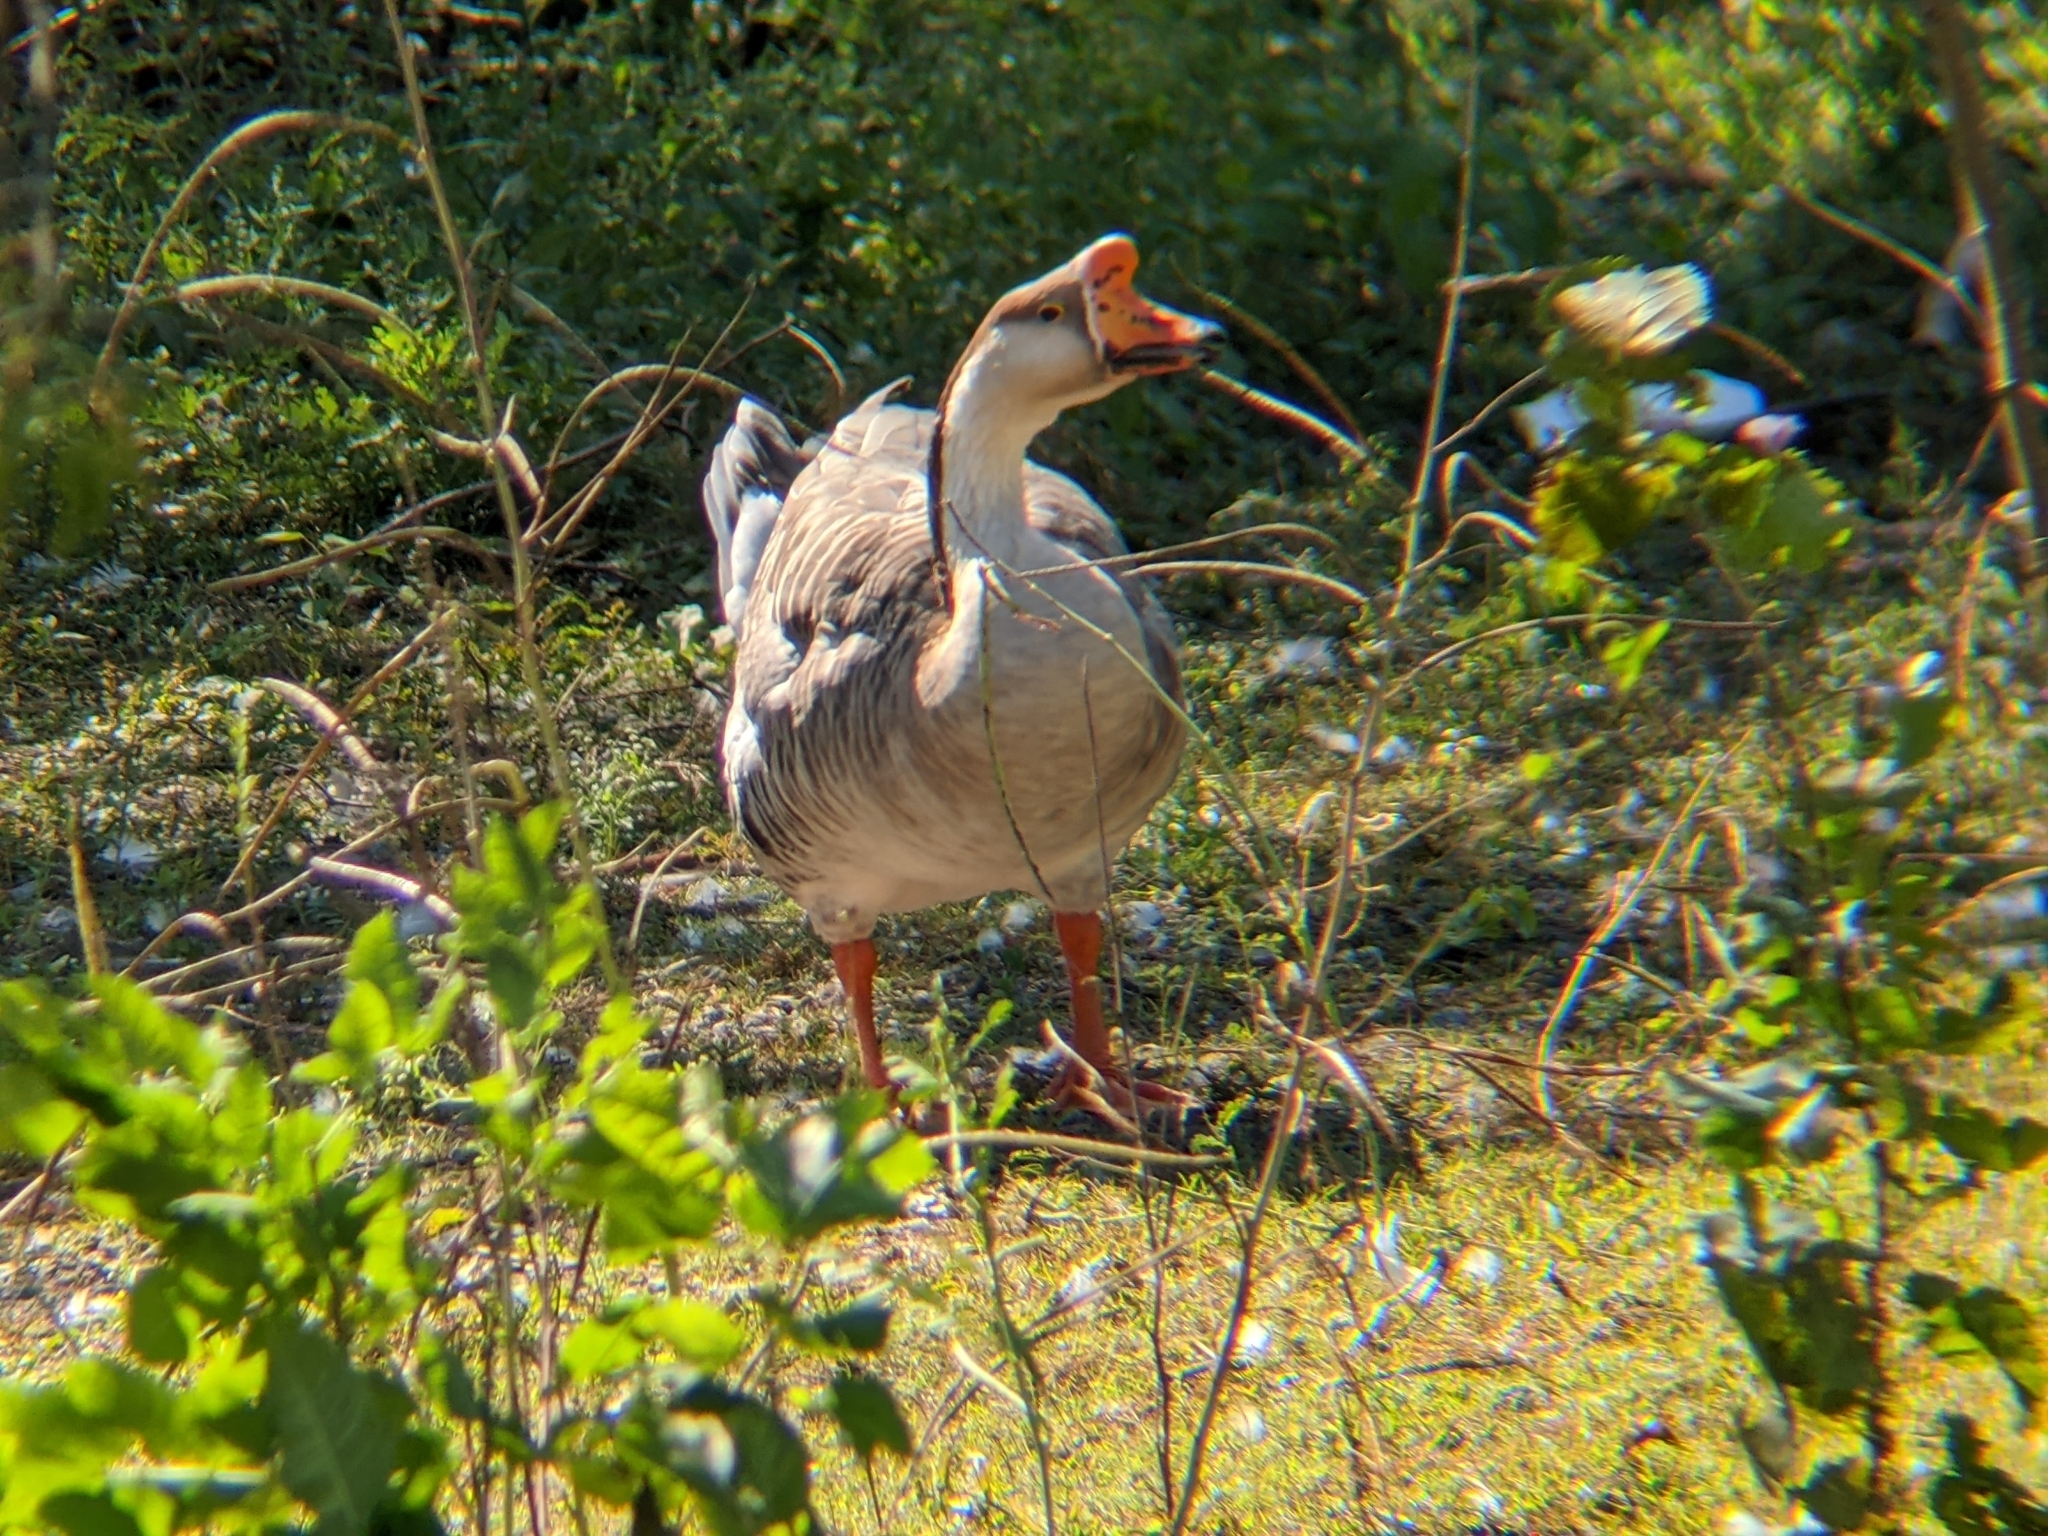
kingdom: Animalia
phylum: Chordata
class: Aves
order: Anseriformes
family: Anatidae
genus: Anser
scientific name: Anser cygnoides
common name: Swan goose
